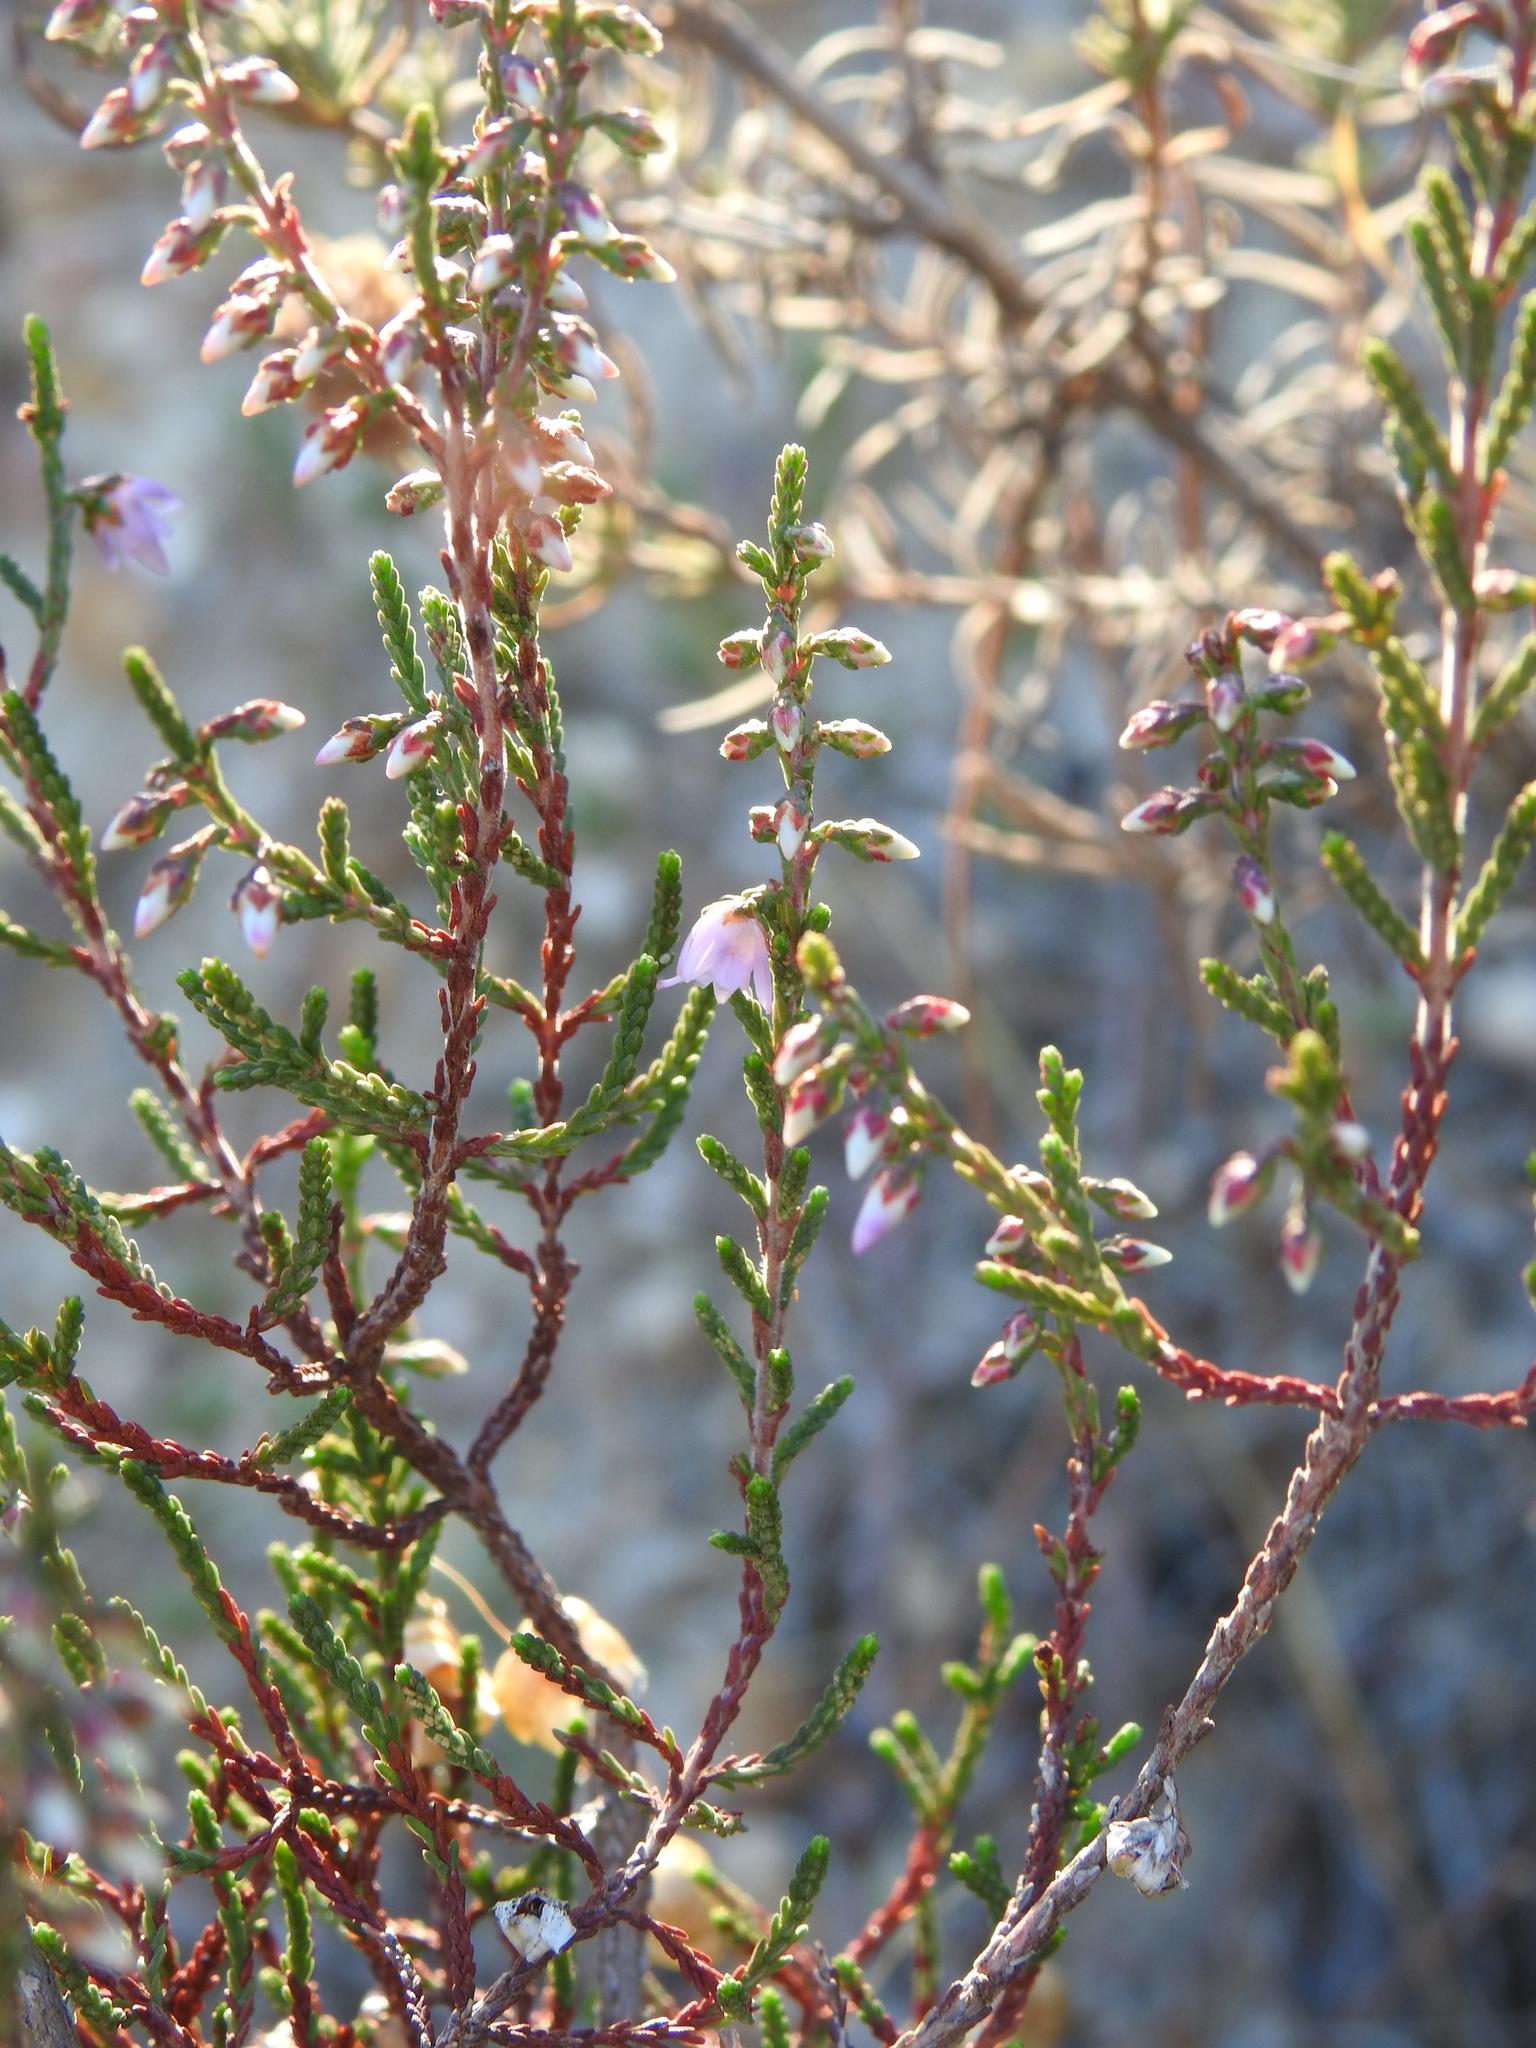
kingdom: Plantae
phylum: Tracheophyta
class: Magnoliopsida
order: Ericales
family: Ericaceae
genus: Calluna
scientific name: Calluna vulgaris
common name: Heather
